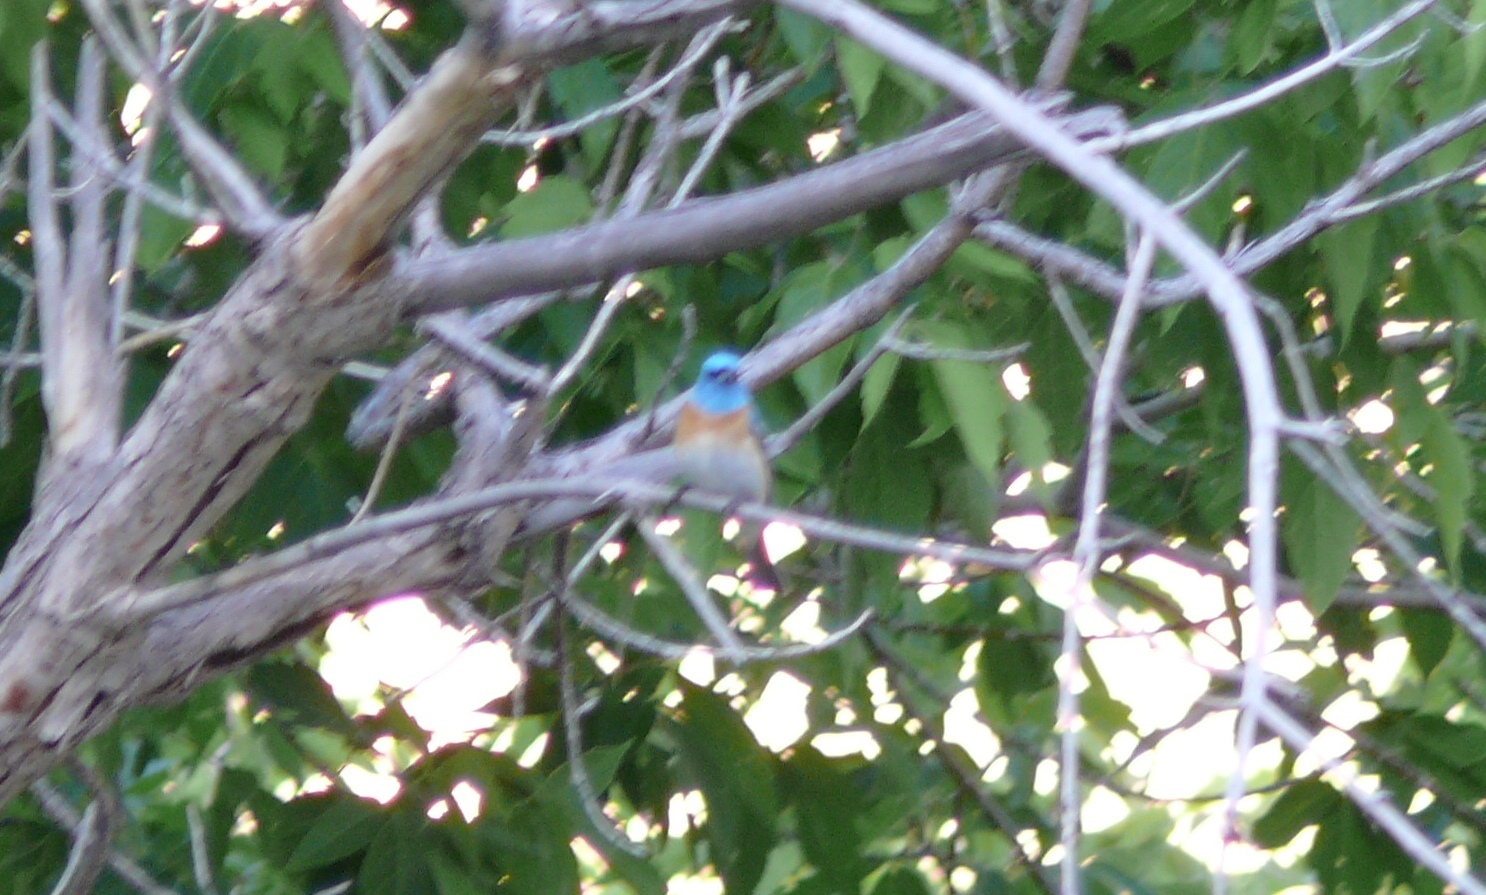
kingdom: Animalia
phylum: Chordata
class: Aves
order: Passeriformes
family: Cardinalidae
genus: Passerina
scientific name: Passerina amoena
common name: Lazuli bunting
